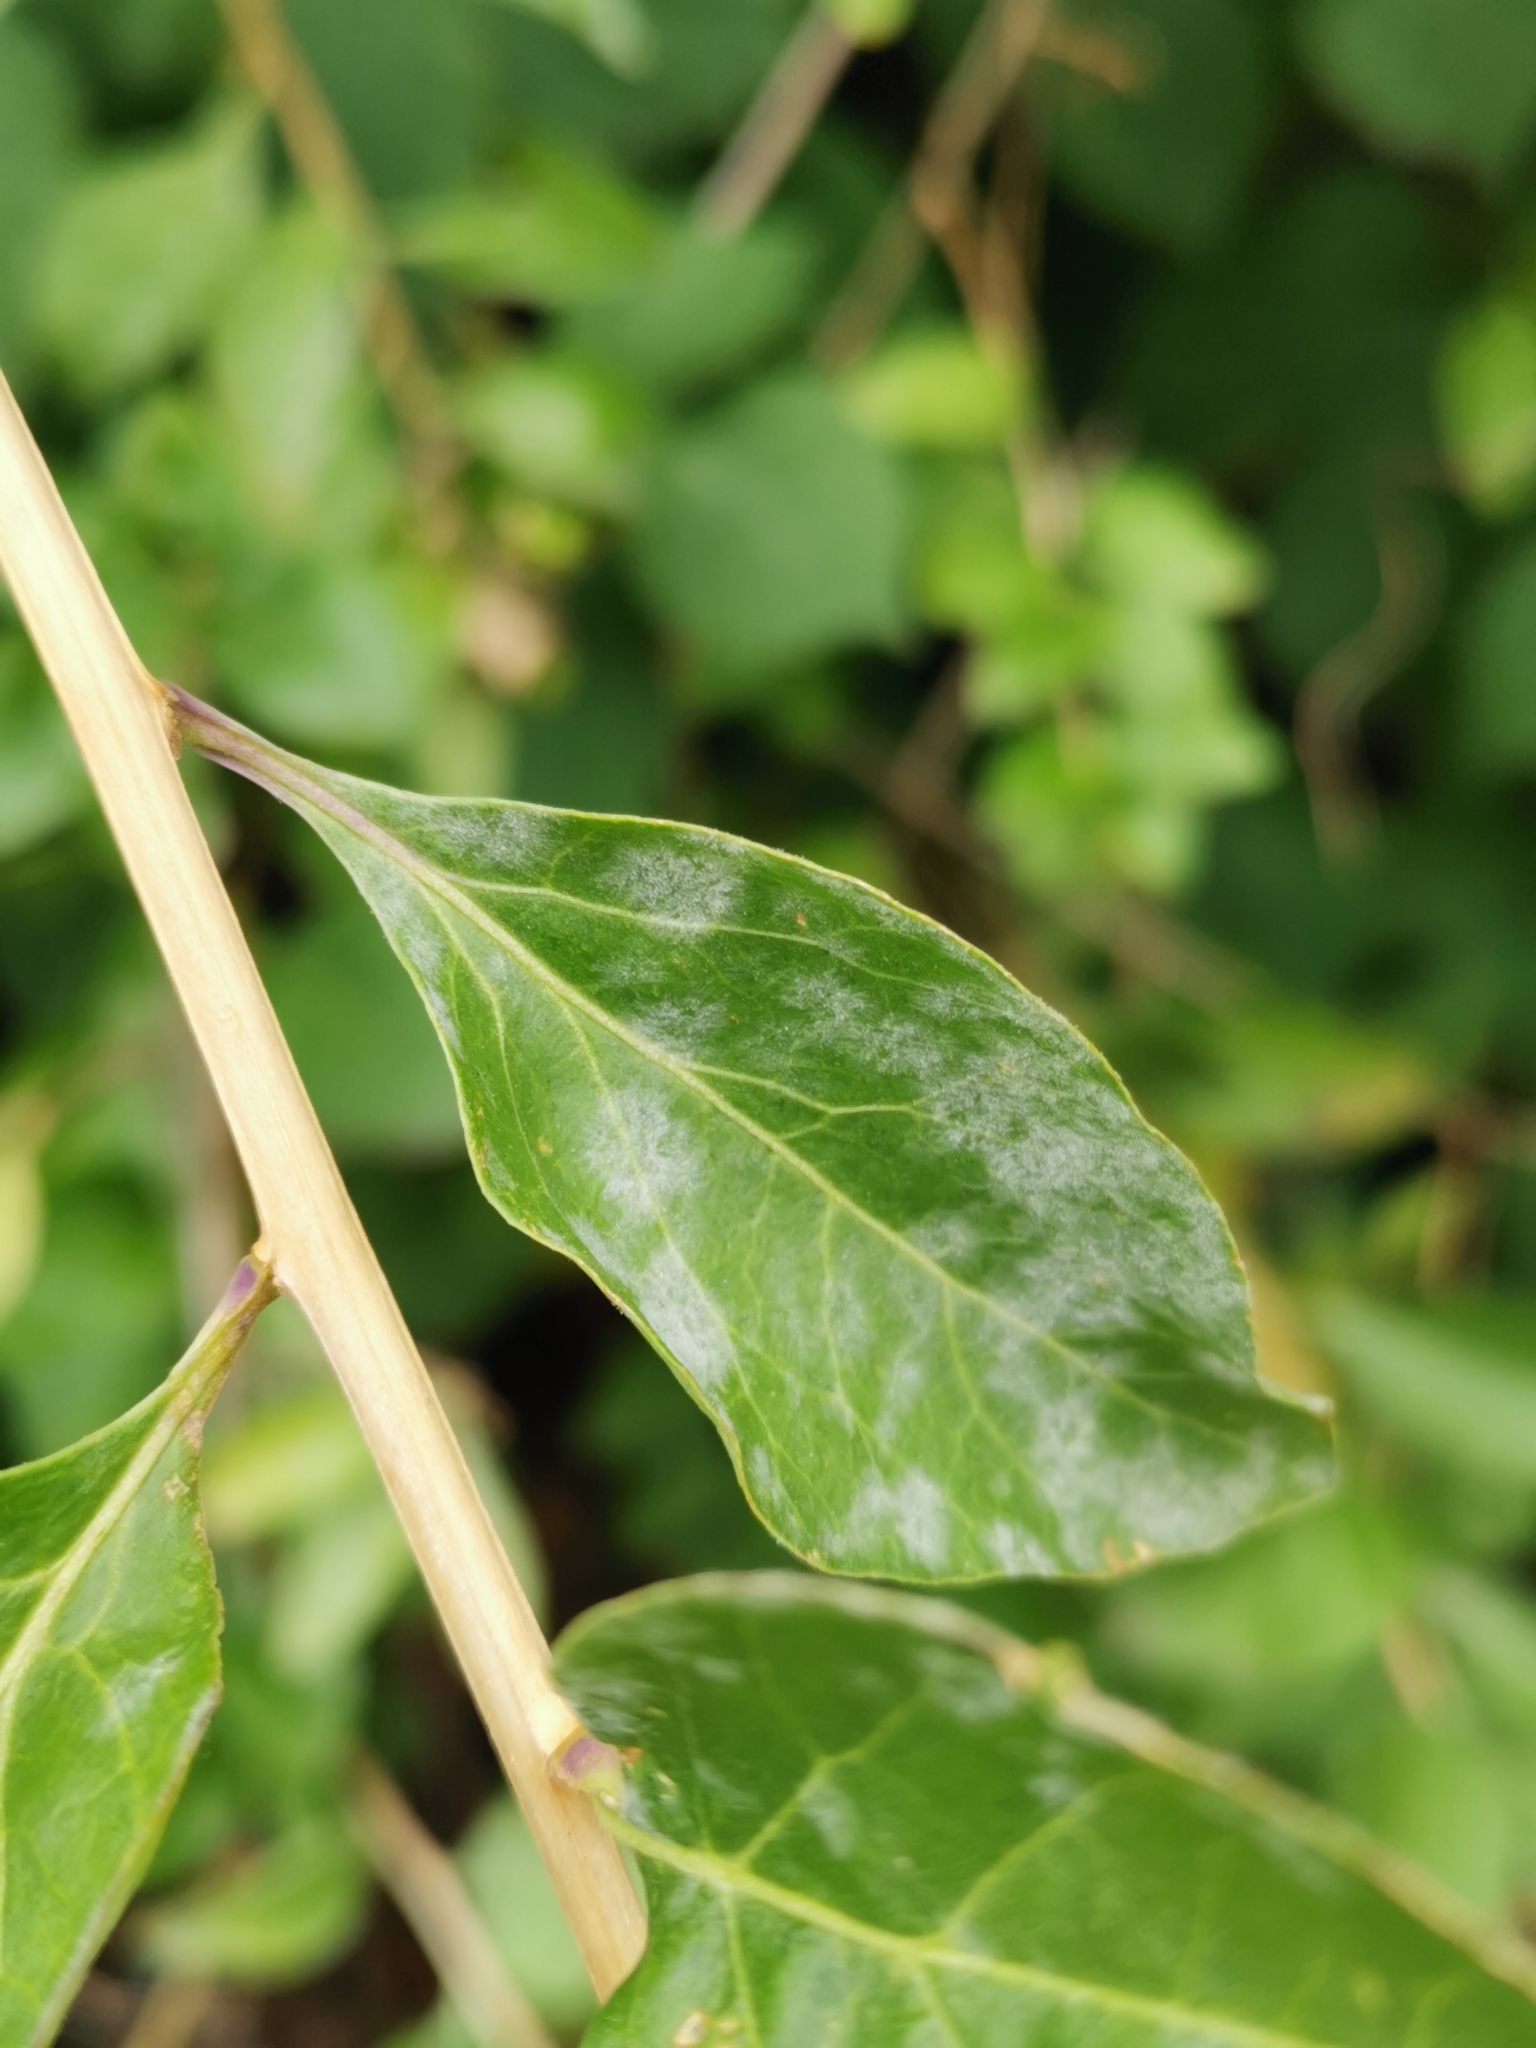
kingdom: Fungi
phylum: Ascomycota
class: Leotiomycetes
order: Helotiales
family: Erysiphaceae
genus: Erysiphe
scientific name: Erysiphe mougeotii
